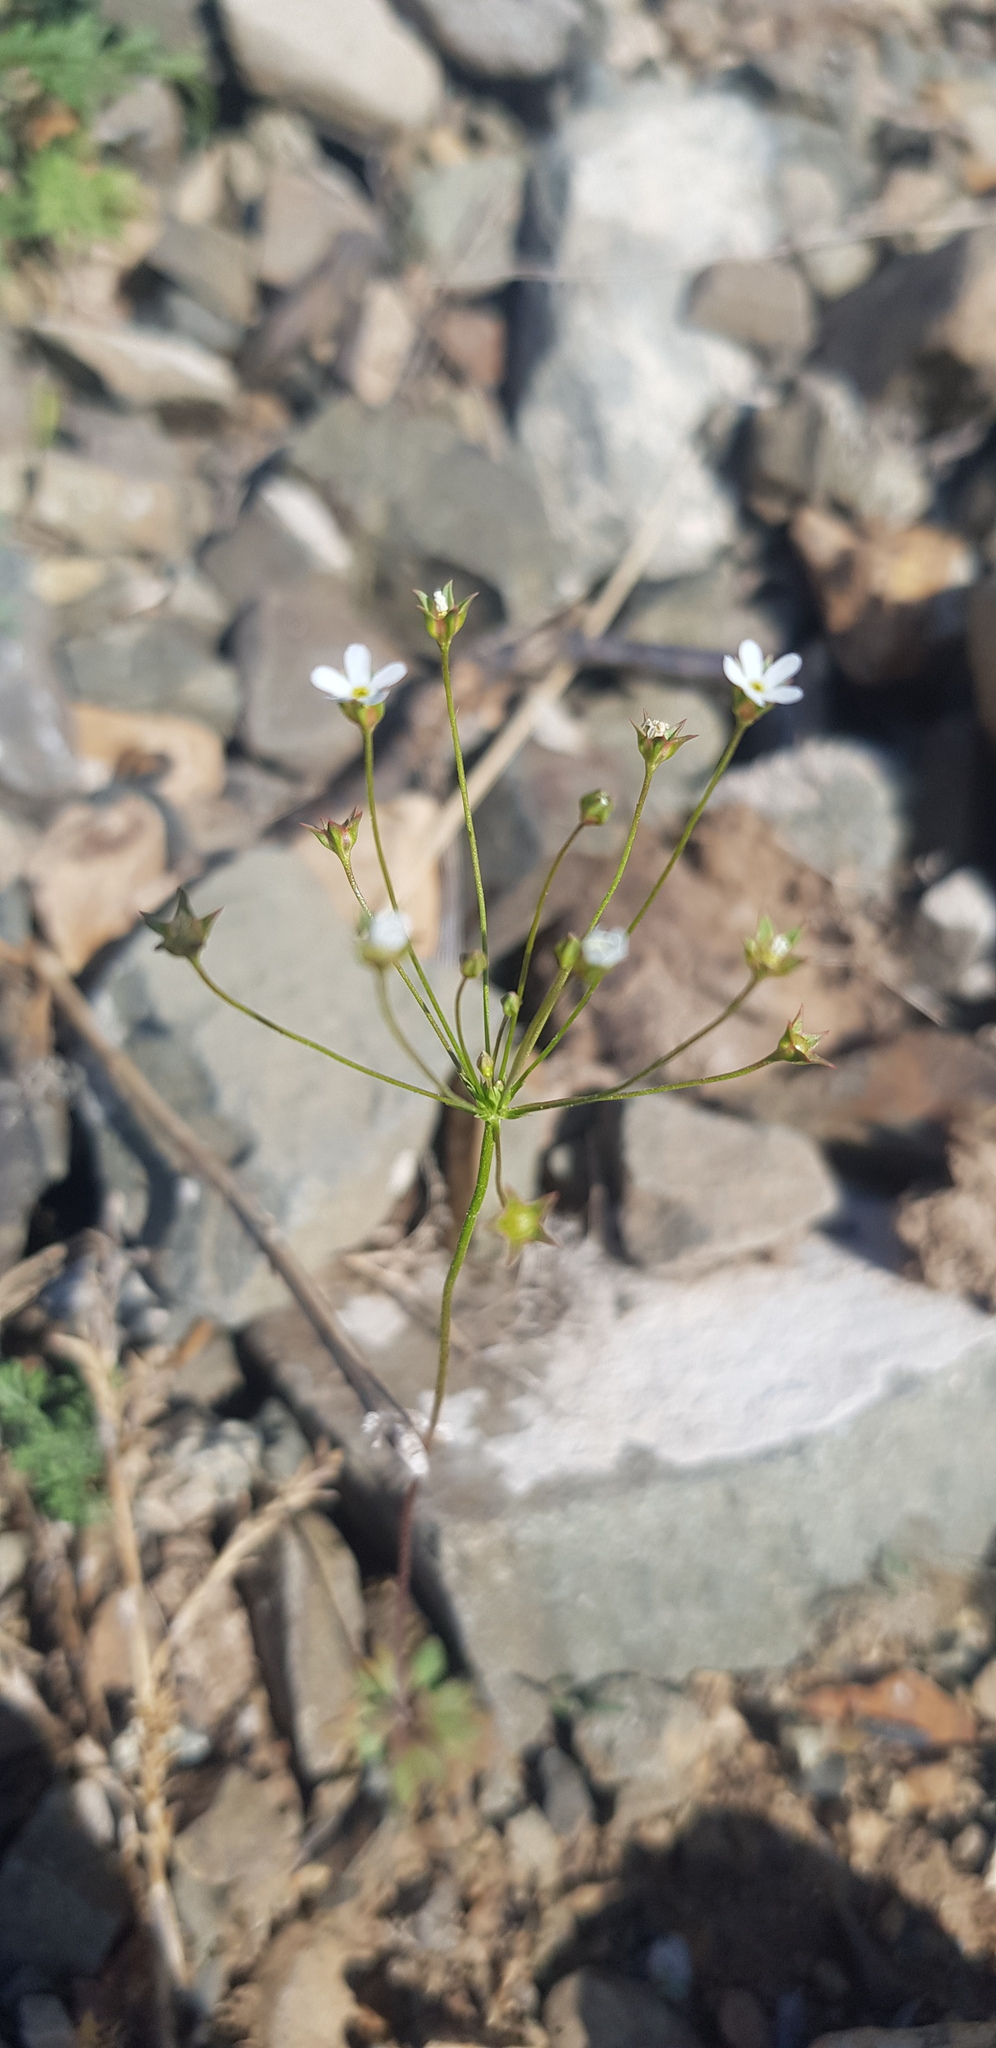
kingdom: Plantae
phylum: Tracheophyta
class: Magnoliopsida
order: Ericales
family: Primulaceae
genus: Androsace
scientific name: Androsace filiformis
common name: Filiform rock jasmine
